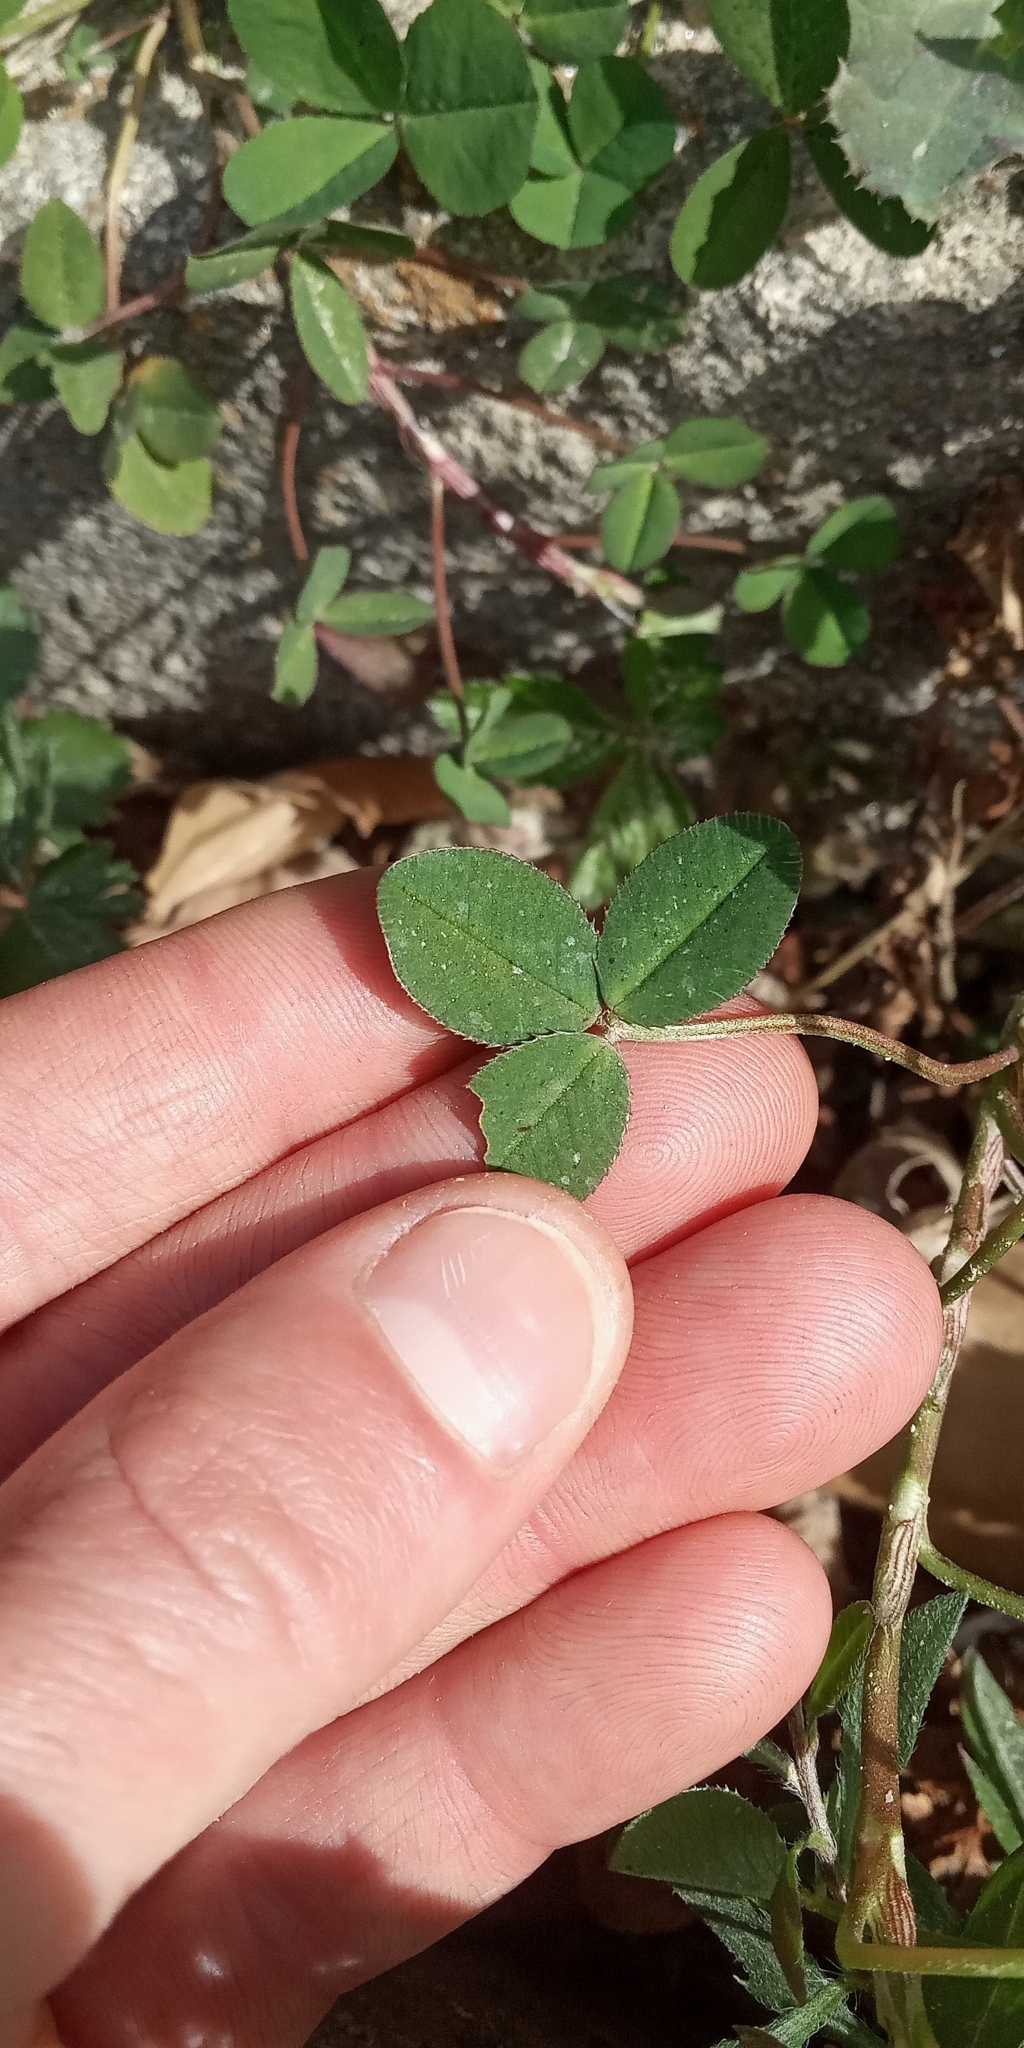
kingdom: Plantae
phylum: Tracheophyta
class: Magnoliopsida
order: Fabales
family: Fabaceae
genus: Trifolium
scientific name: Trifolium repens
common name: White clover
